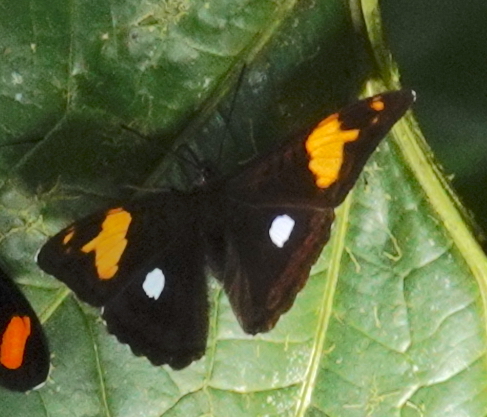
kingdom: Animalia
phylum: Arthropoda
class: Insecta
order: Lepidoptera
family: Nymphalidae
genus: Limenitis
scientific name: Limenitis justina
